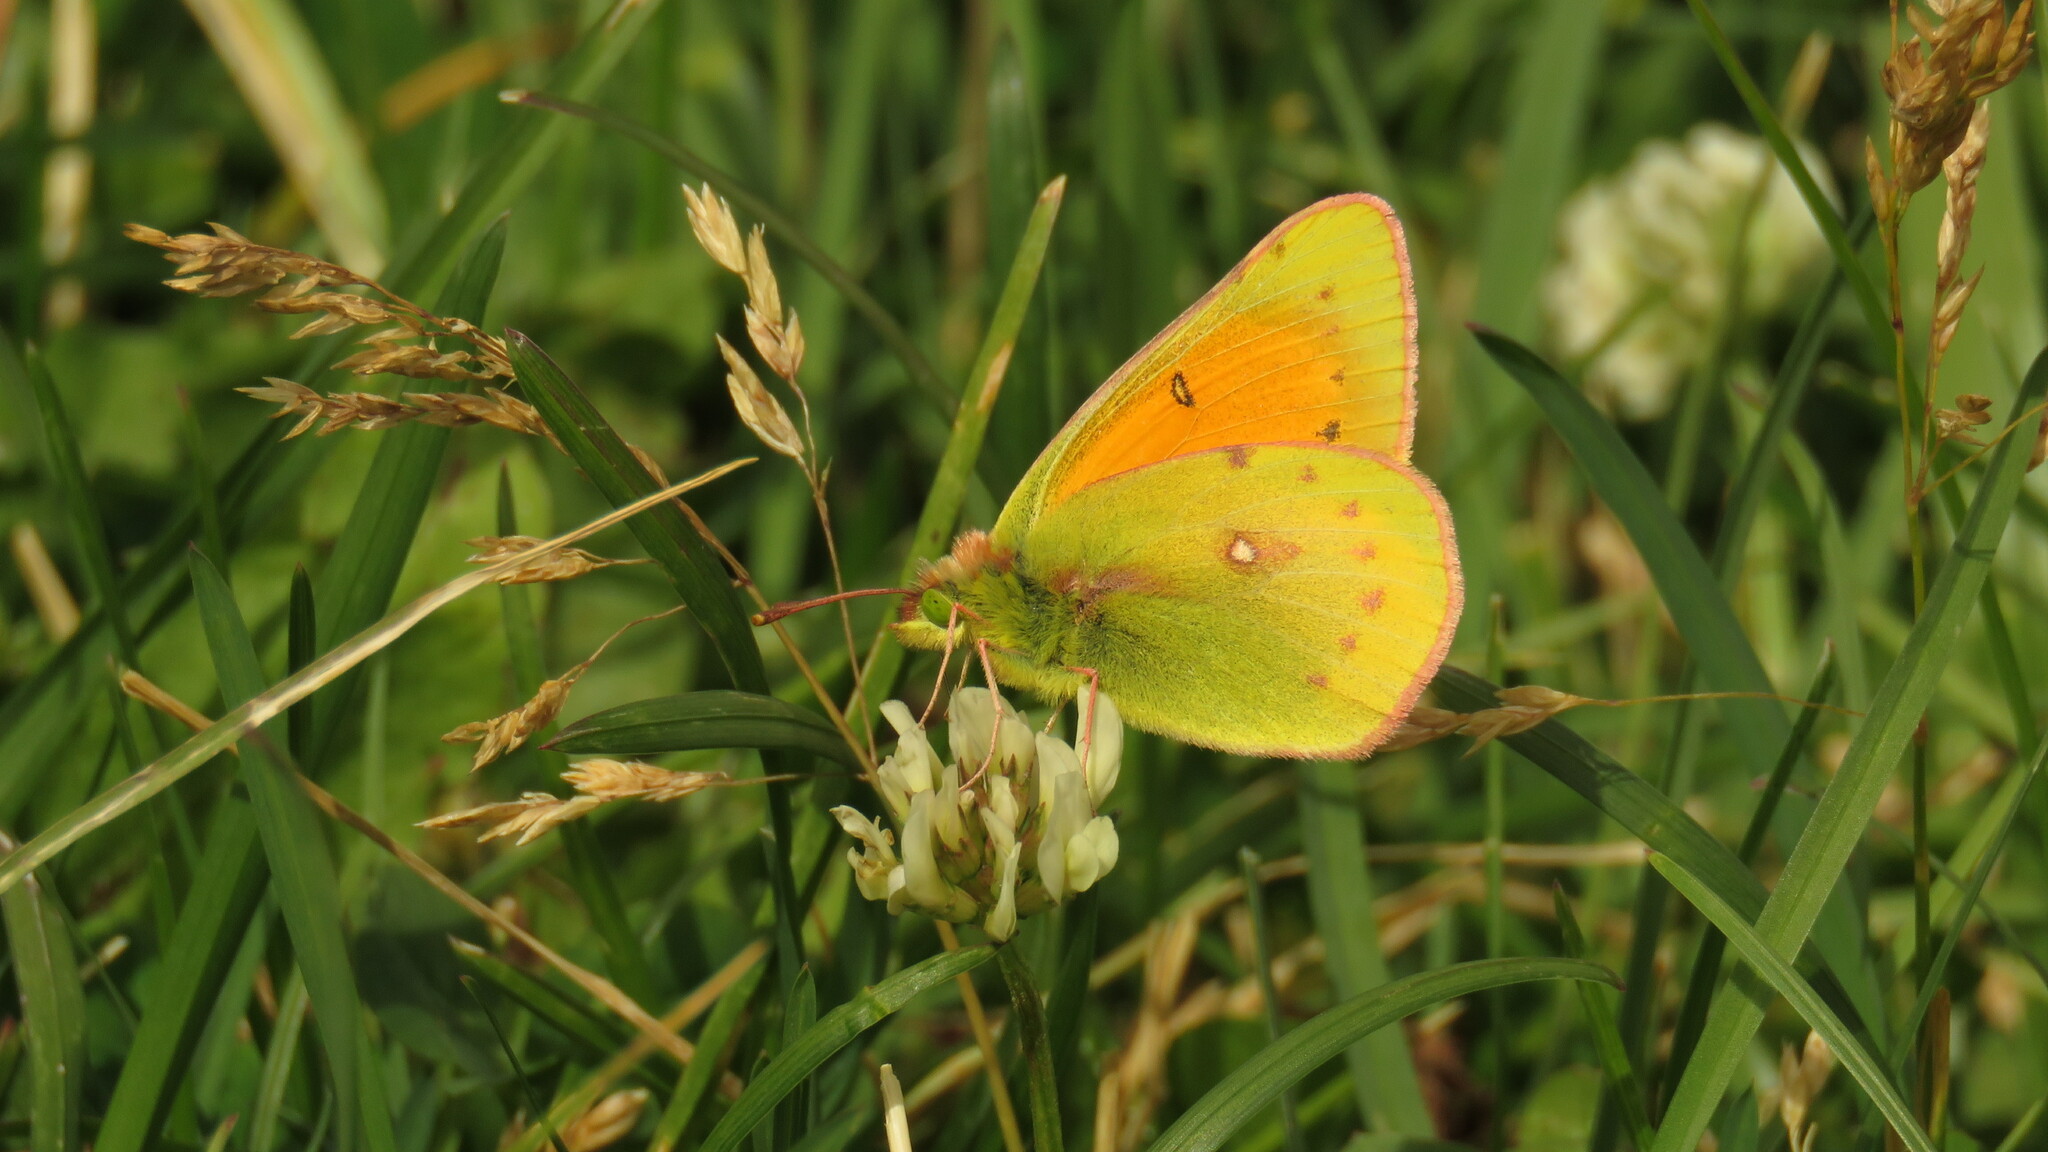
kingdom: Animalia
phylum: Arthropoda
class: Insecta
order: Lepidoptera
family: Pieridae
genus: Colias
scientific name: Colias vauthierii
